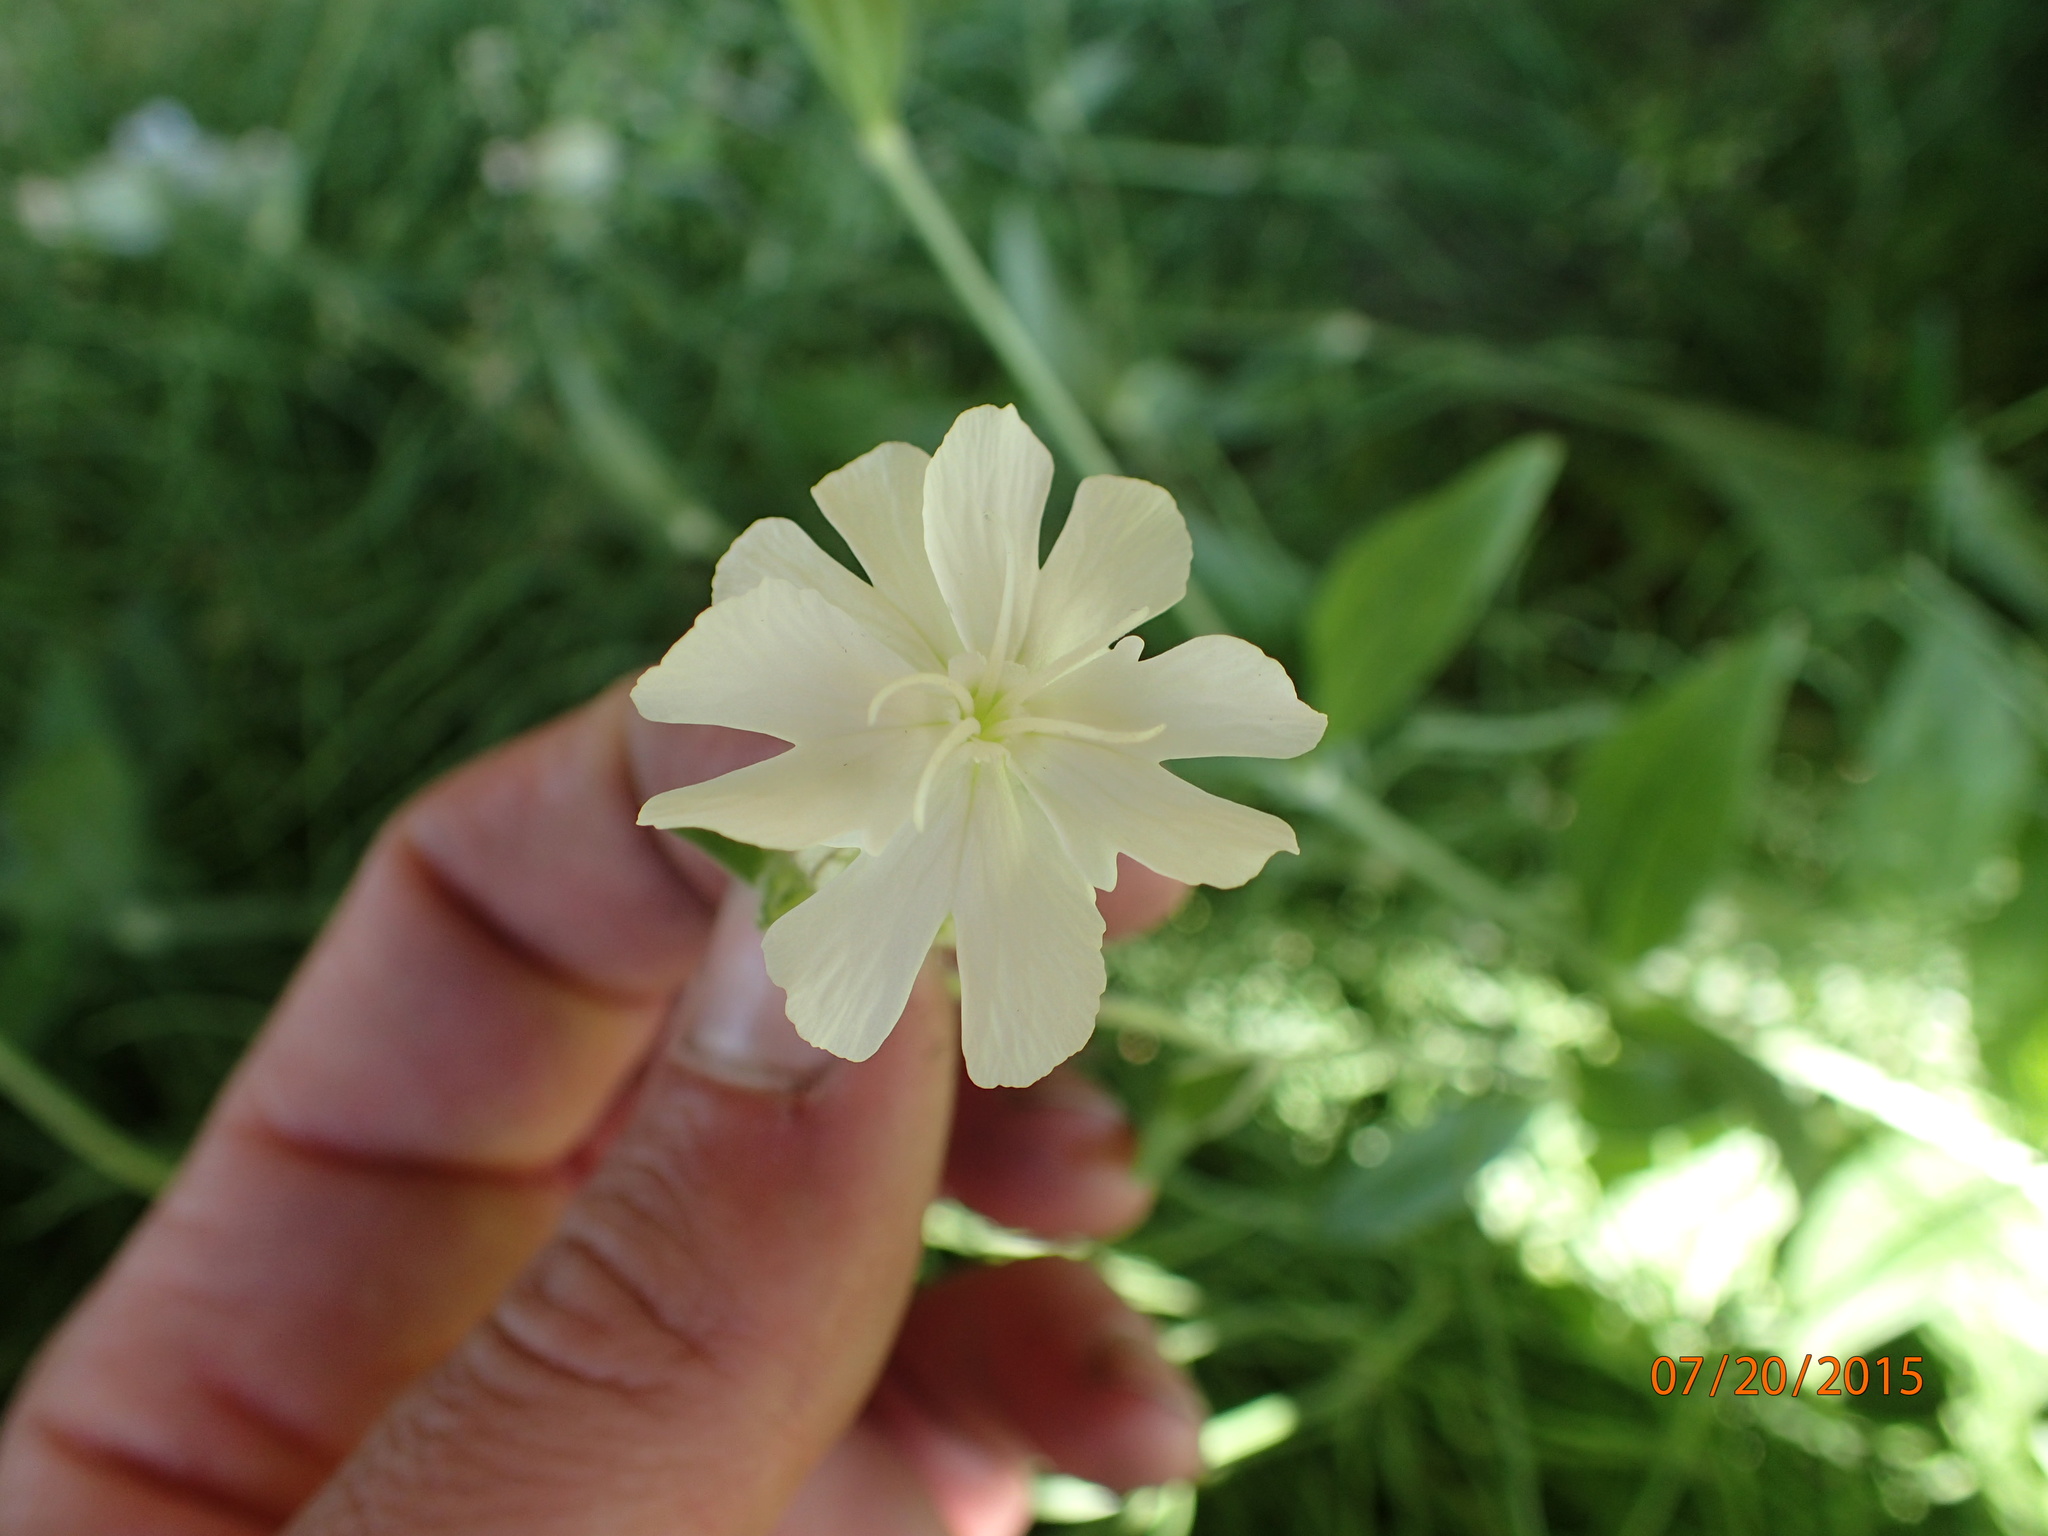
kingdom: Plantae
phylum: Tracheophyta
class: Magnoliopsida
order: Caryophyllales
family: Caryophyllaceae
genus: Silene
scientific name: Silene latifolia
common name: White campion
